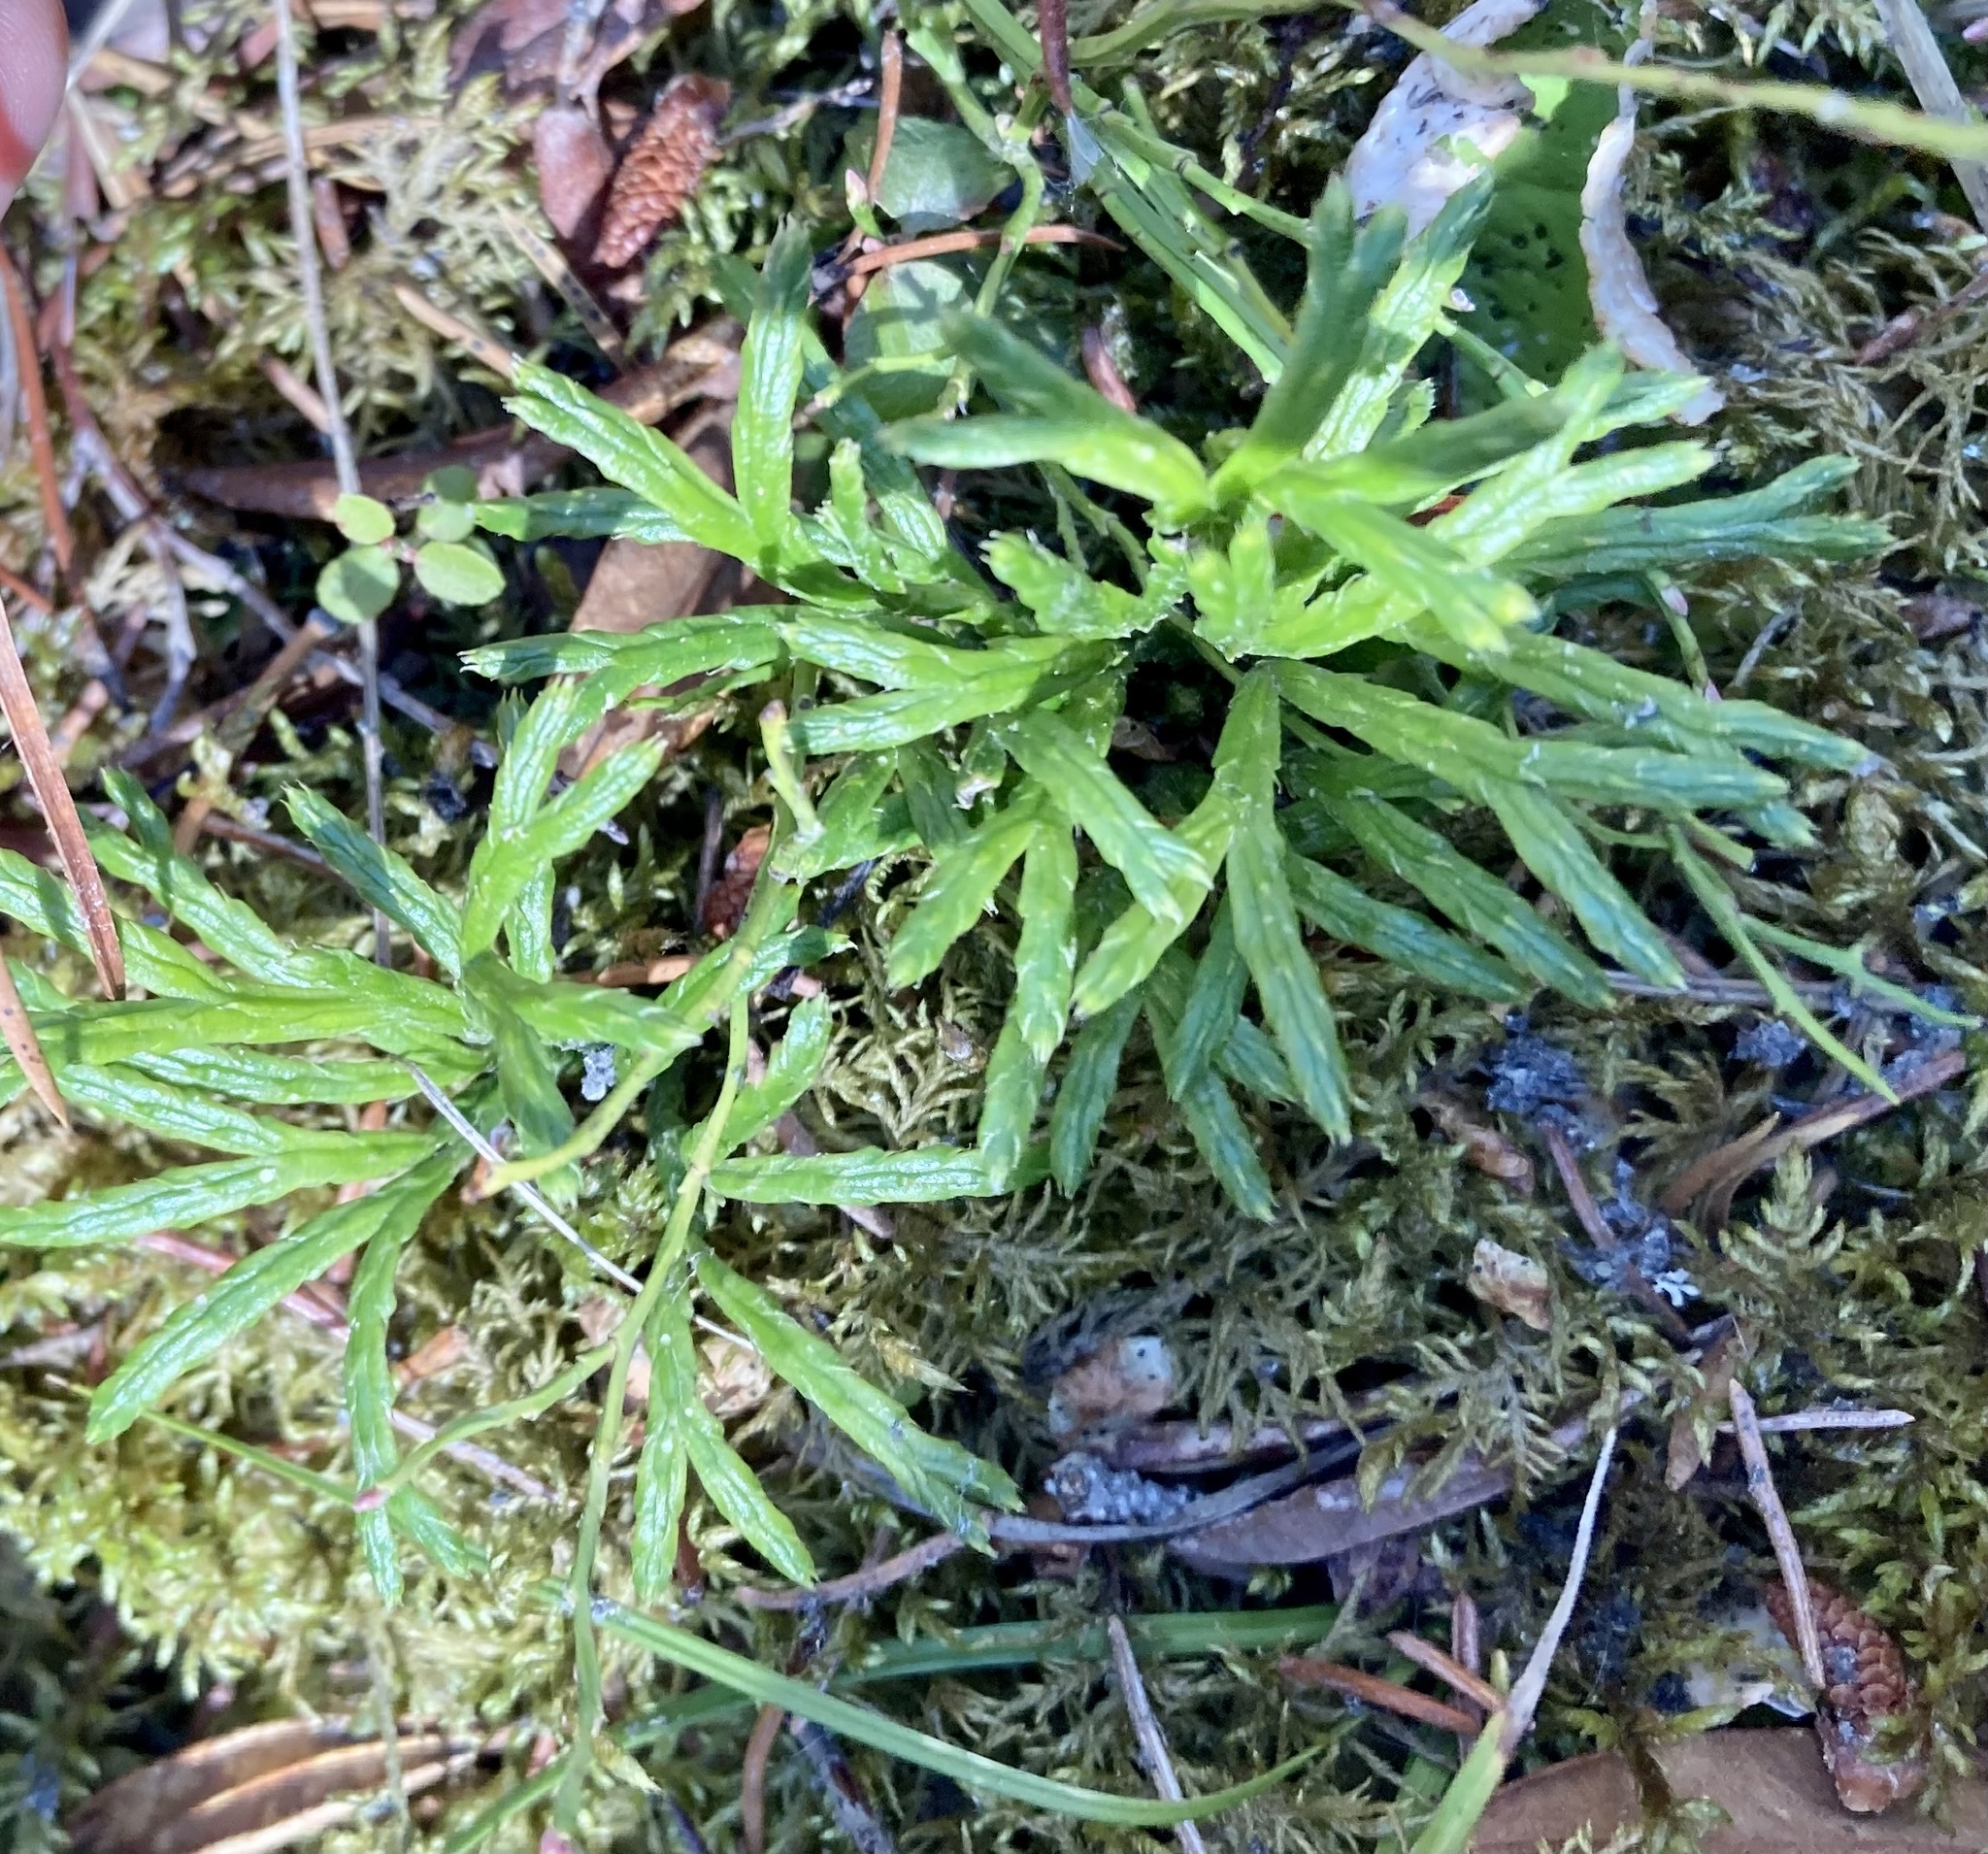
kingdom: Plantae
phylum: Tracheophyta
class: Lycopodiopsida
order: Lycopodiales
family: Lycopodiaceae
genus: Diphasiastrum
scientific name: Diphasiastrum complanatum
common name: Northern running-pine
